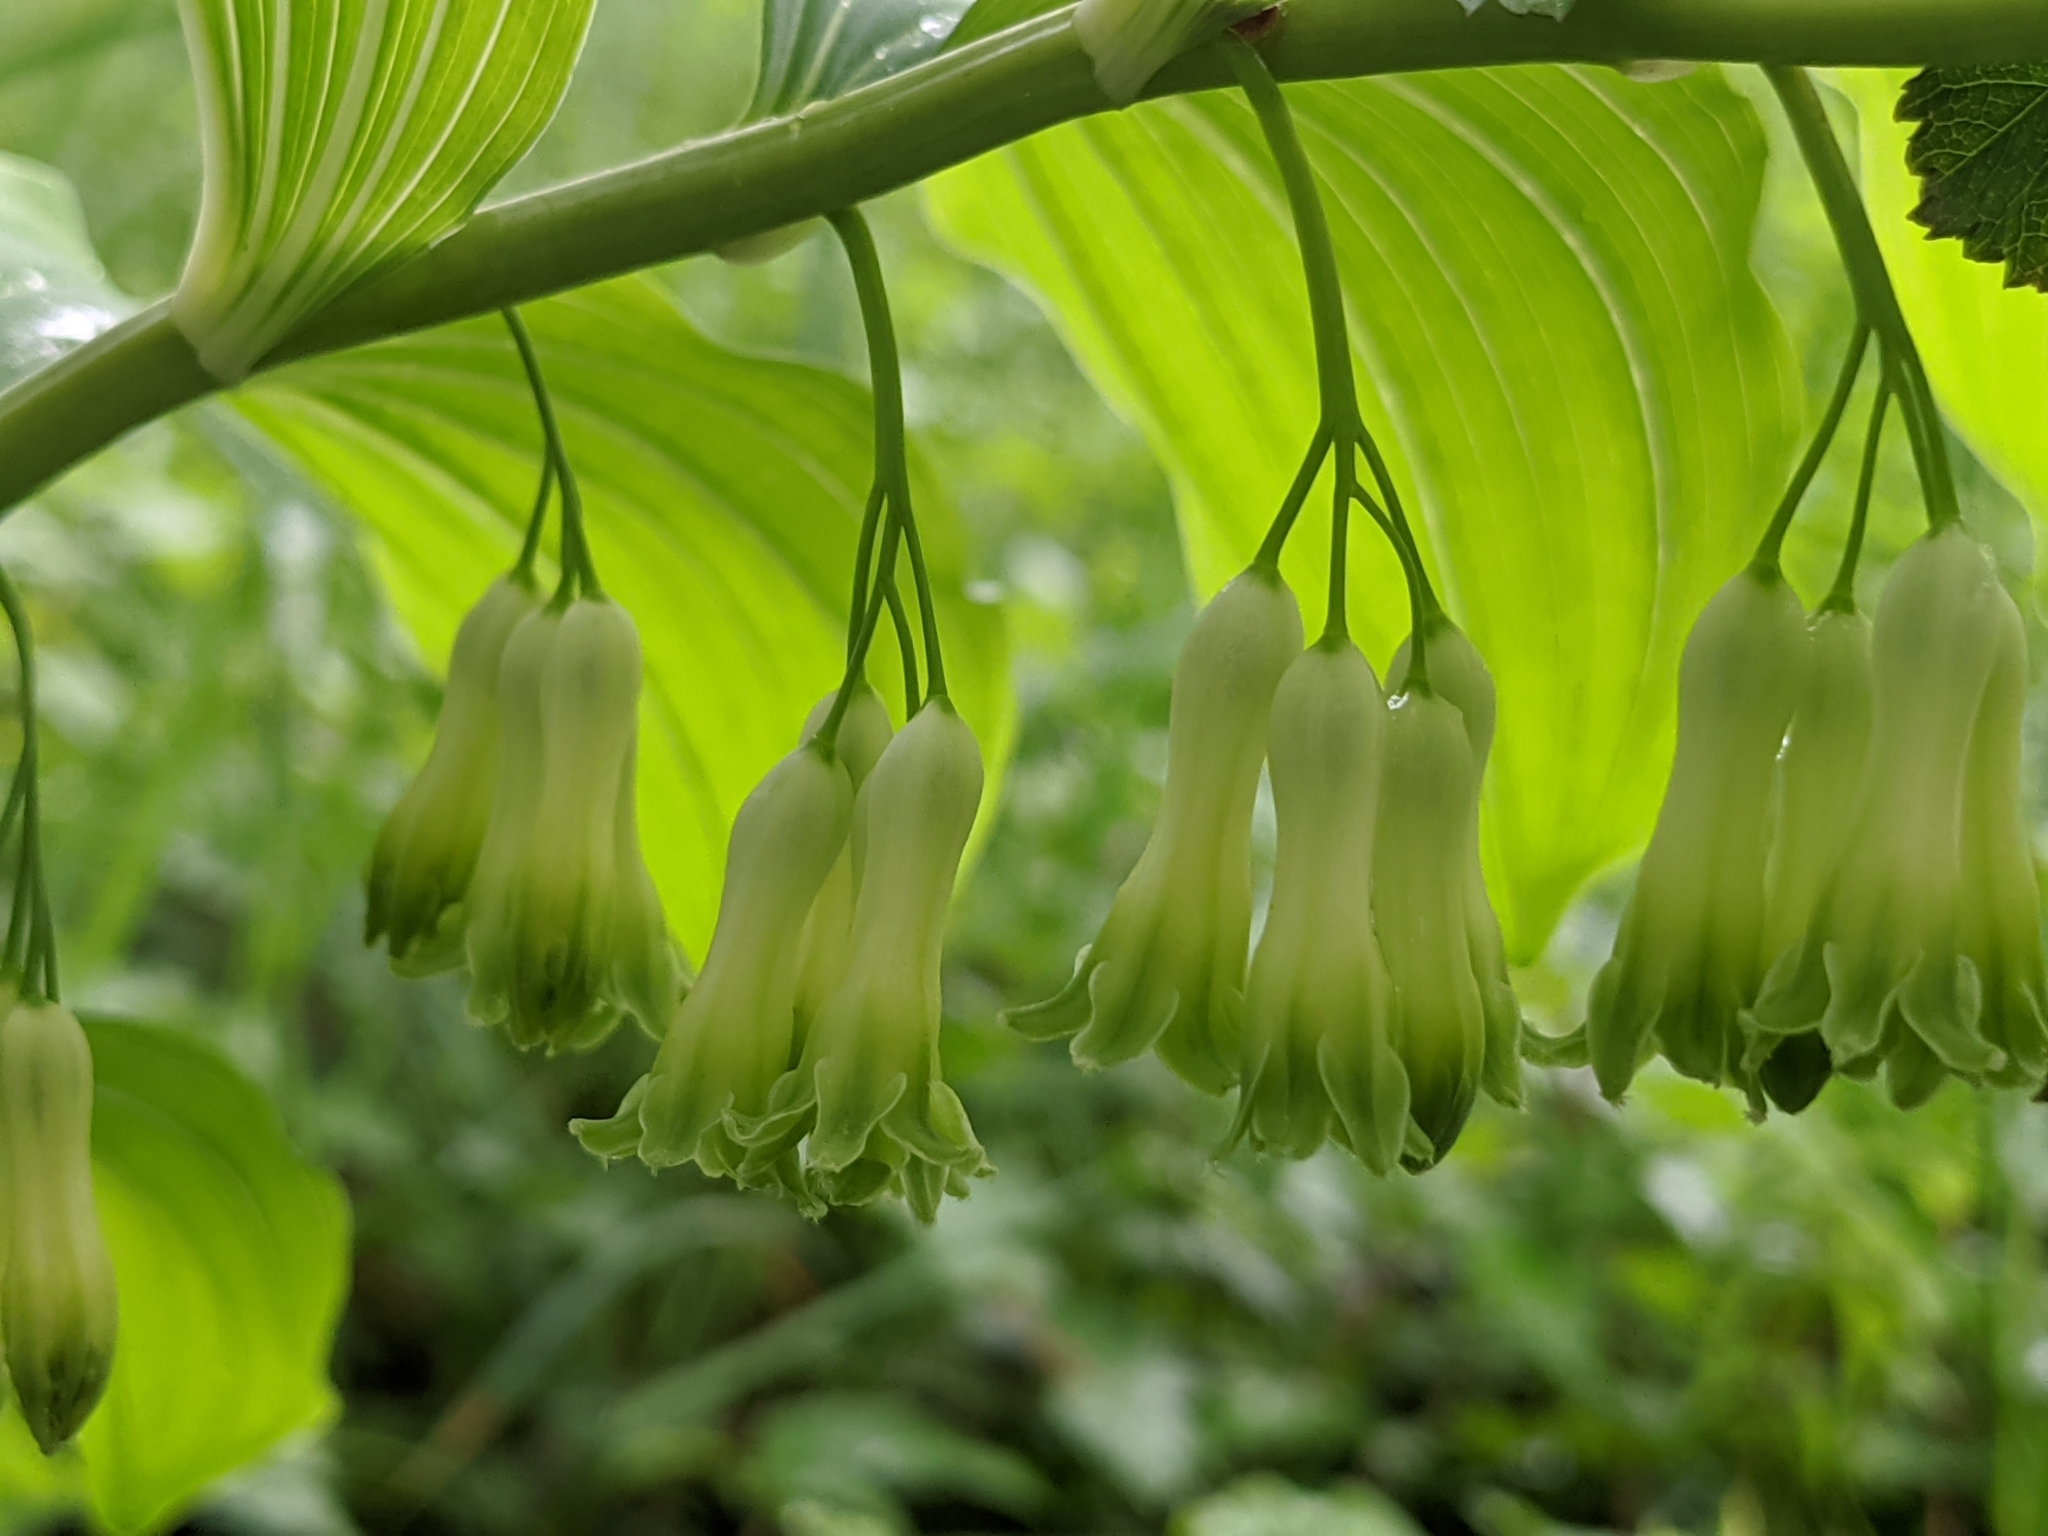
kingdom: Plantae
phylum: Tracheophyta
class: Liliopsida
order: Asparagales
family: Asparagaceae
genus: Polygonatum
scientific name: Polygonatum multiflorum
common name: Solomon's-seal
